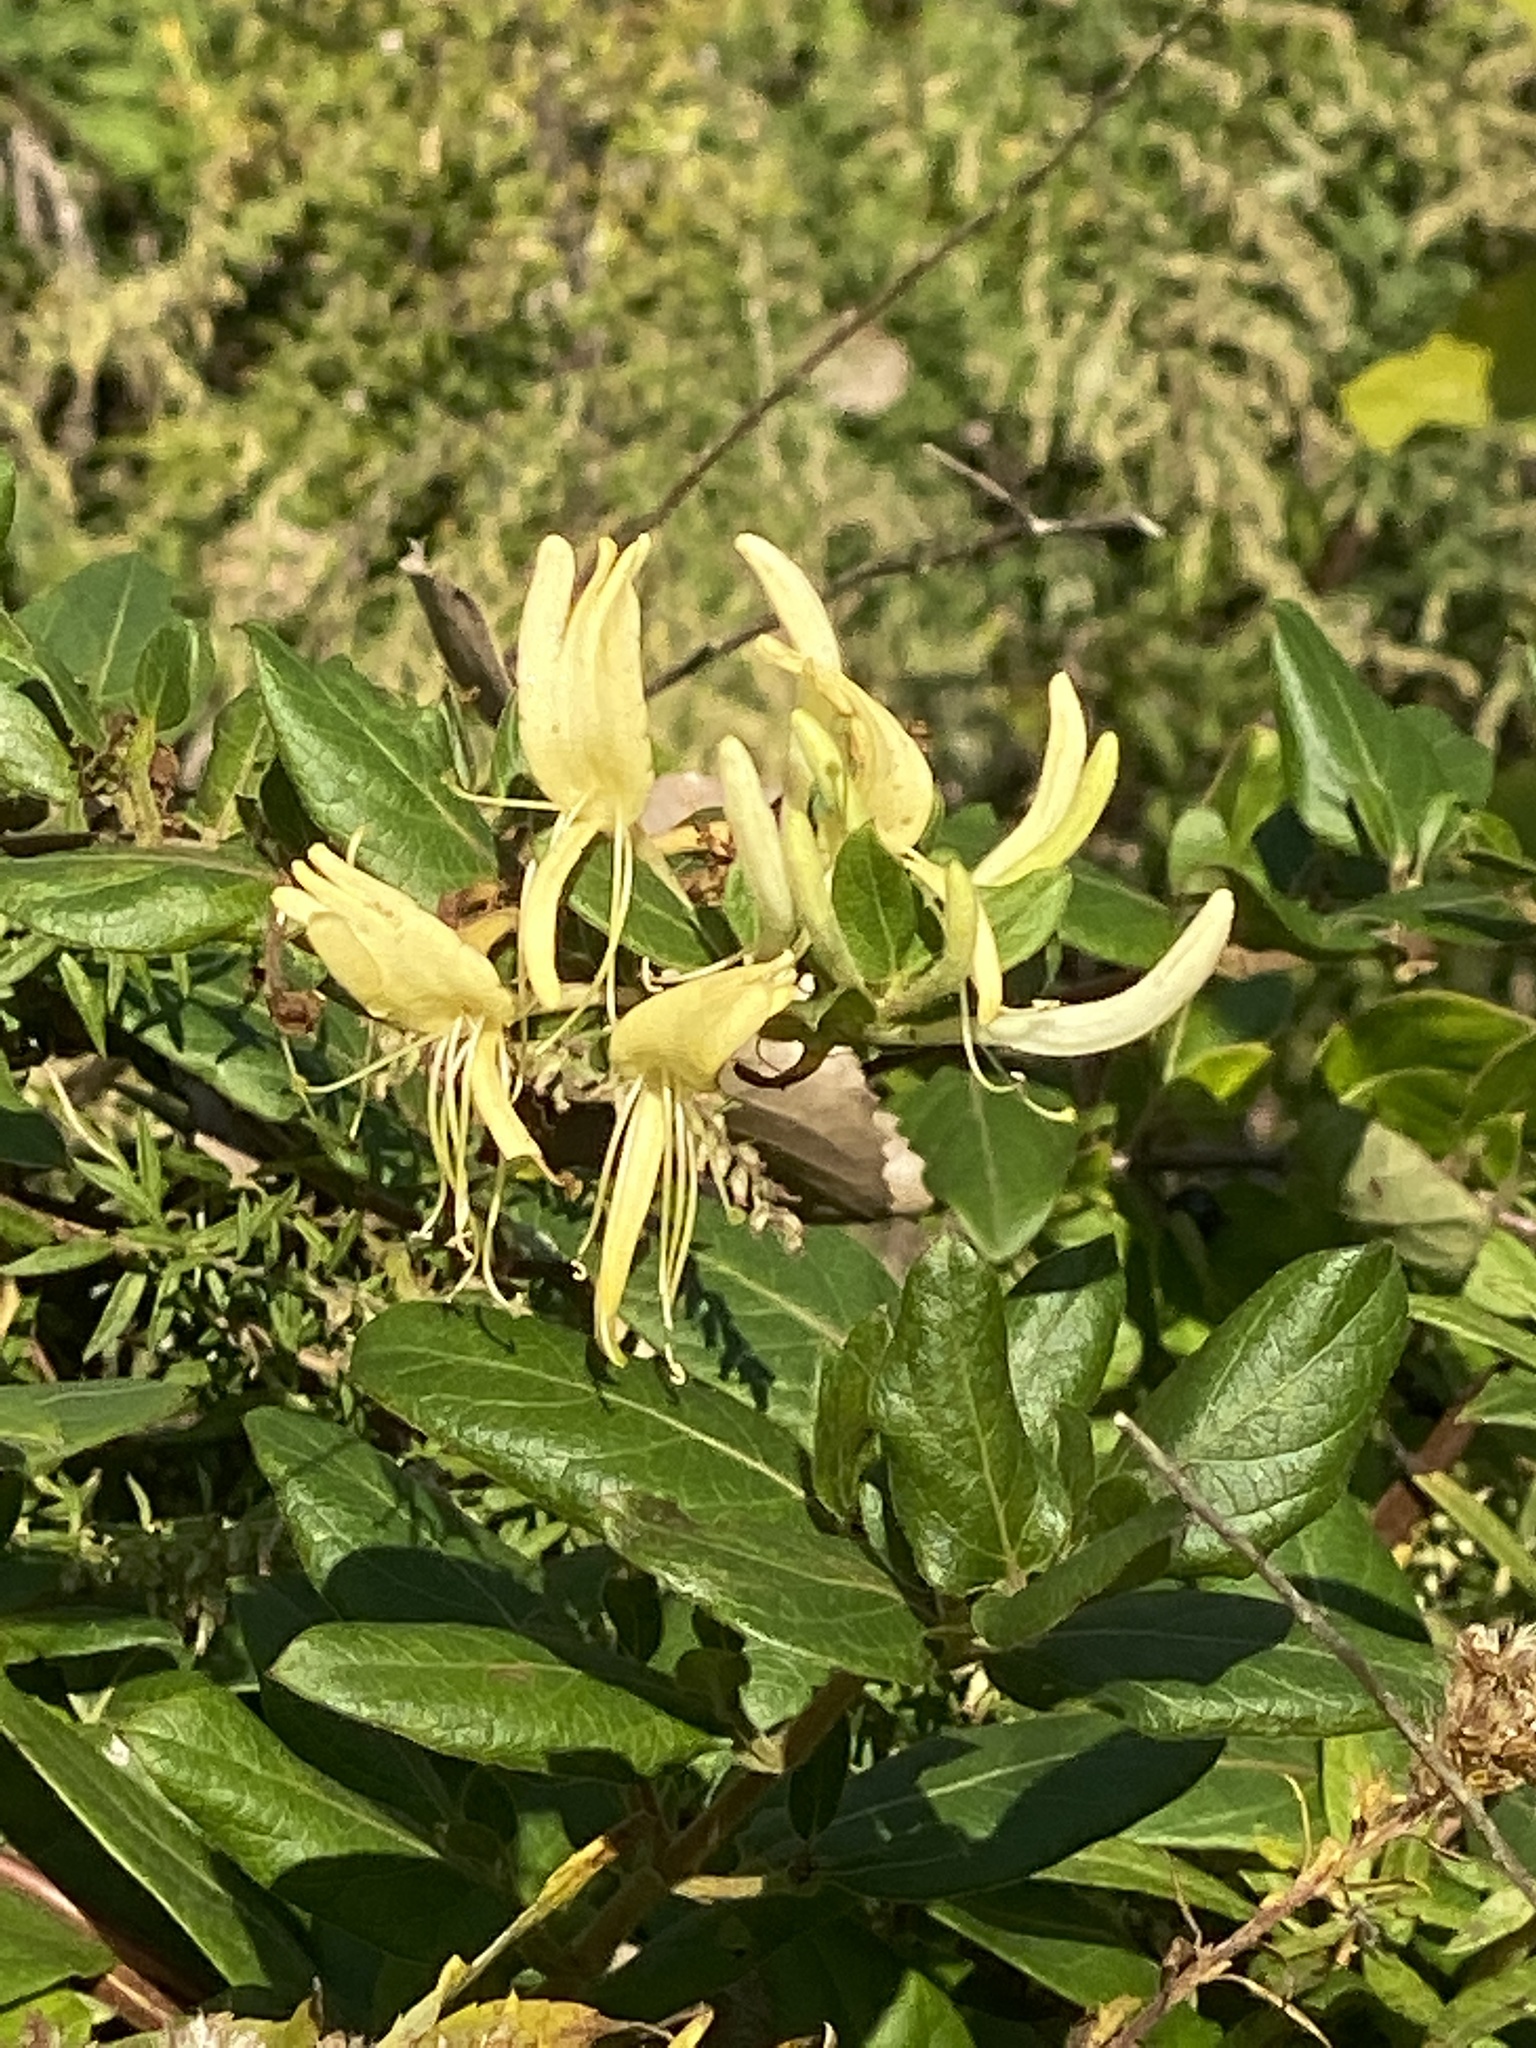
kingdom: Plantae
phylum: Tracheophyta
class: Magnoliopsida
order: Dipsacales
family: Caprifoliaceae
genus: Lonicera
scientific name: Lonicera japonica
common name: Japanese honeysuckle
